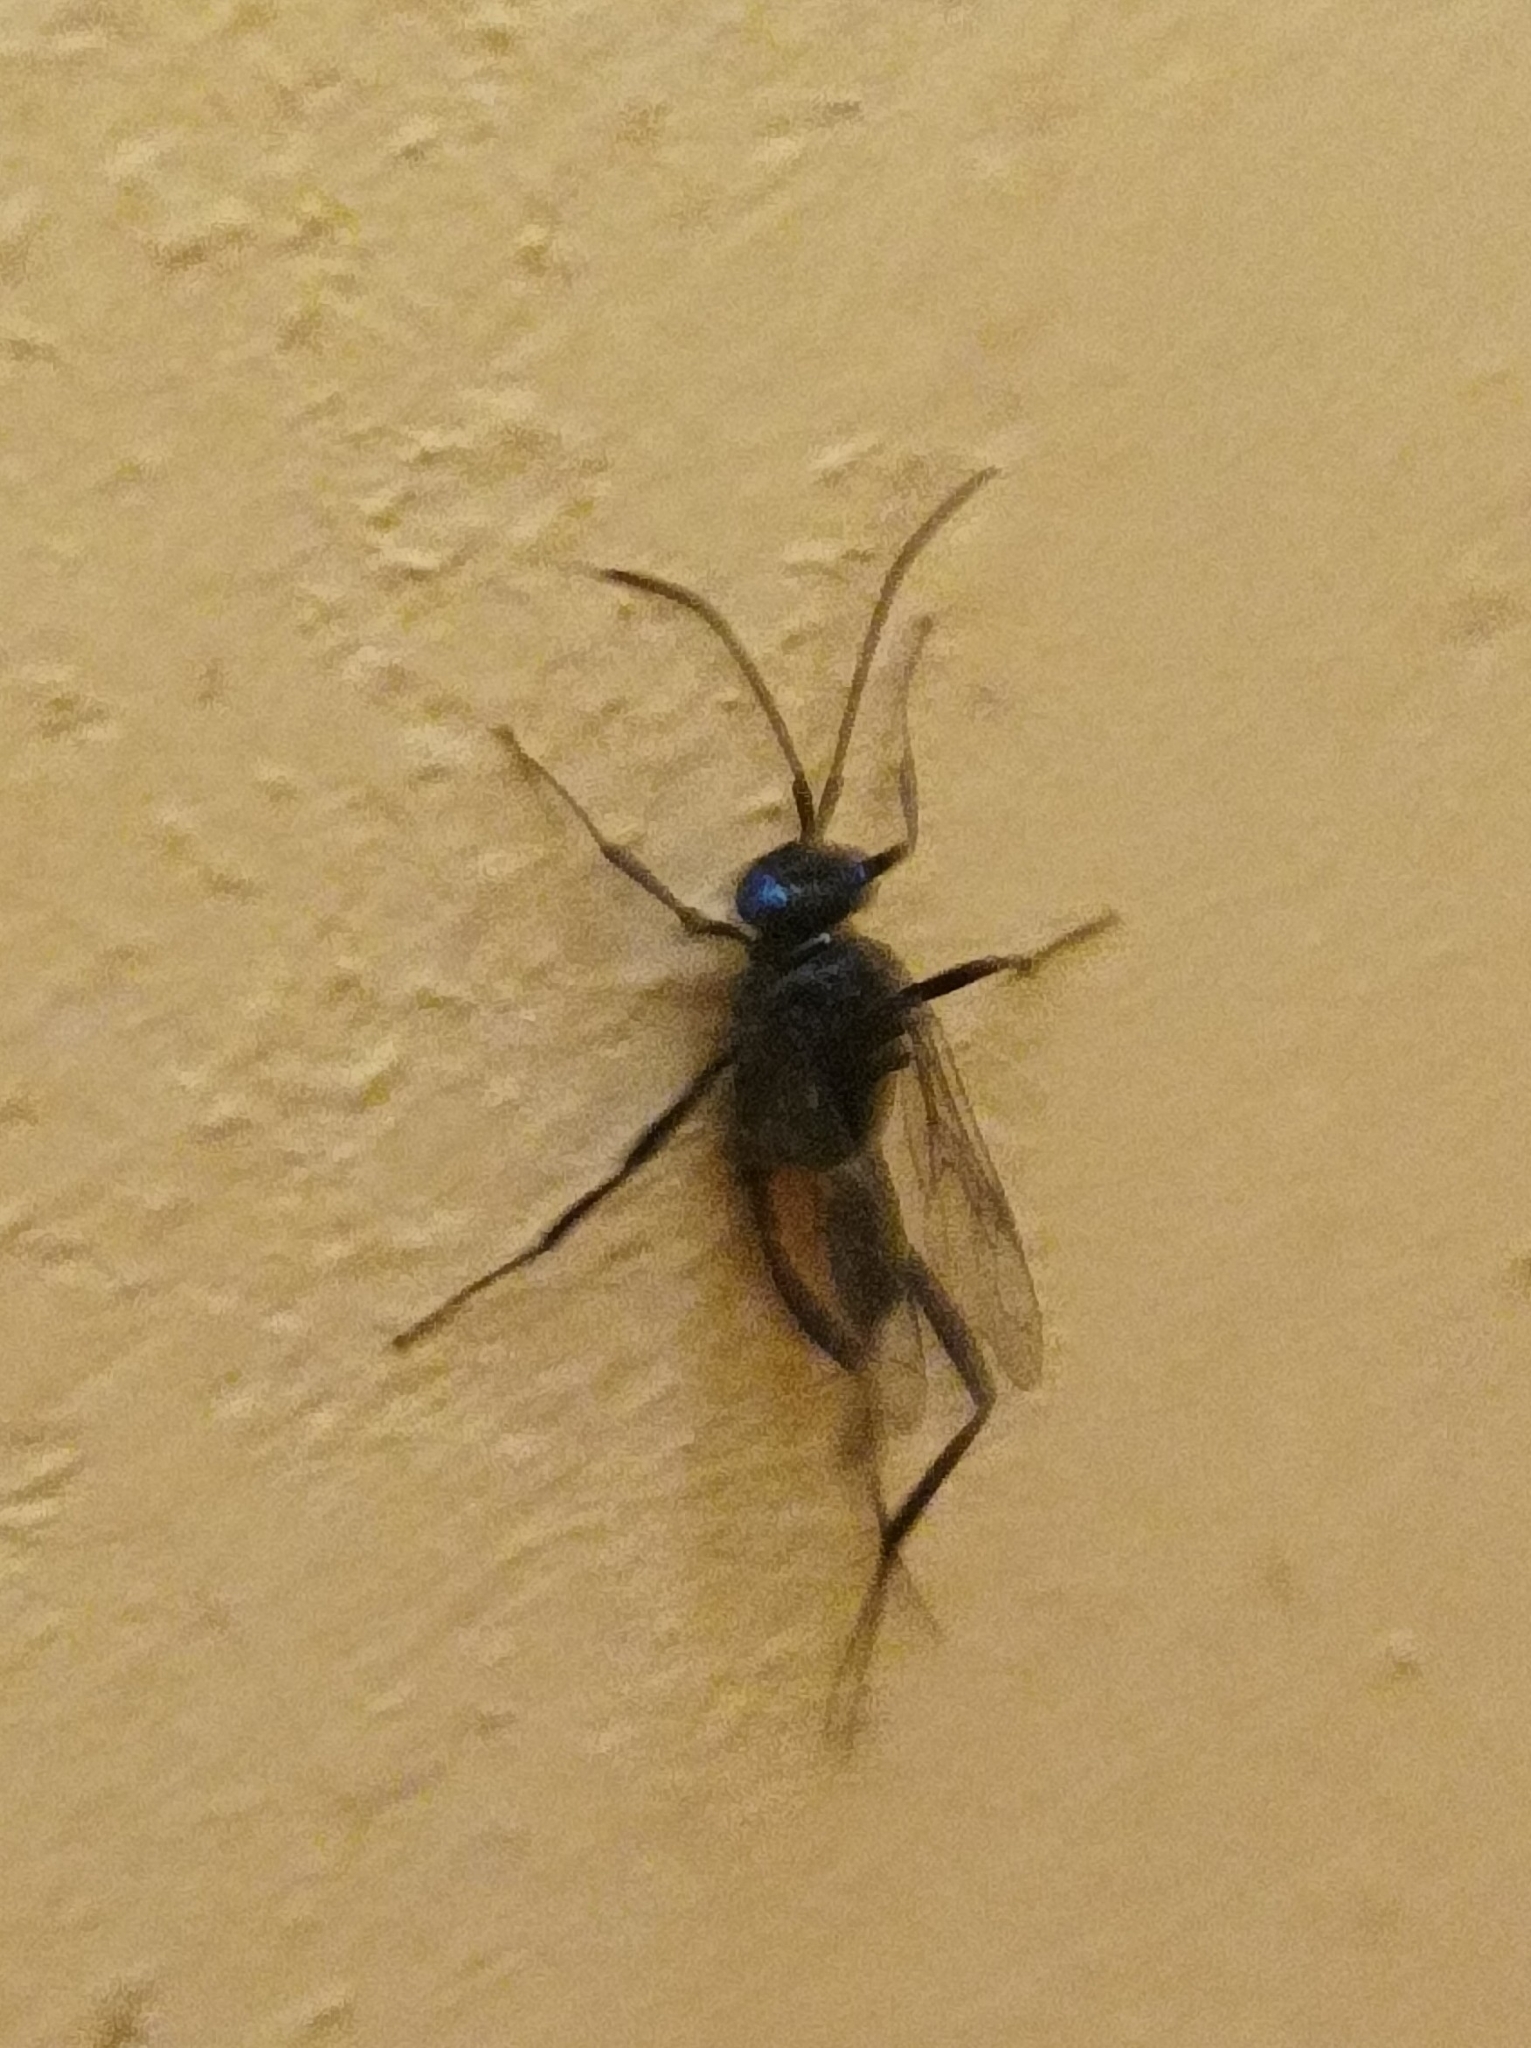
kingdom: Animalia
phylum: Arthropoda
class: Insecta
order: Hymenoptera
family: Evaniidae
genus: Evania
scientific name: Evania appendigaster
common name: Ensign wasp
